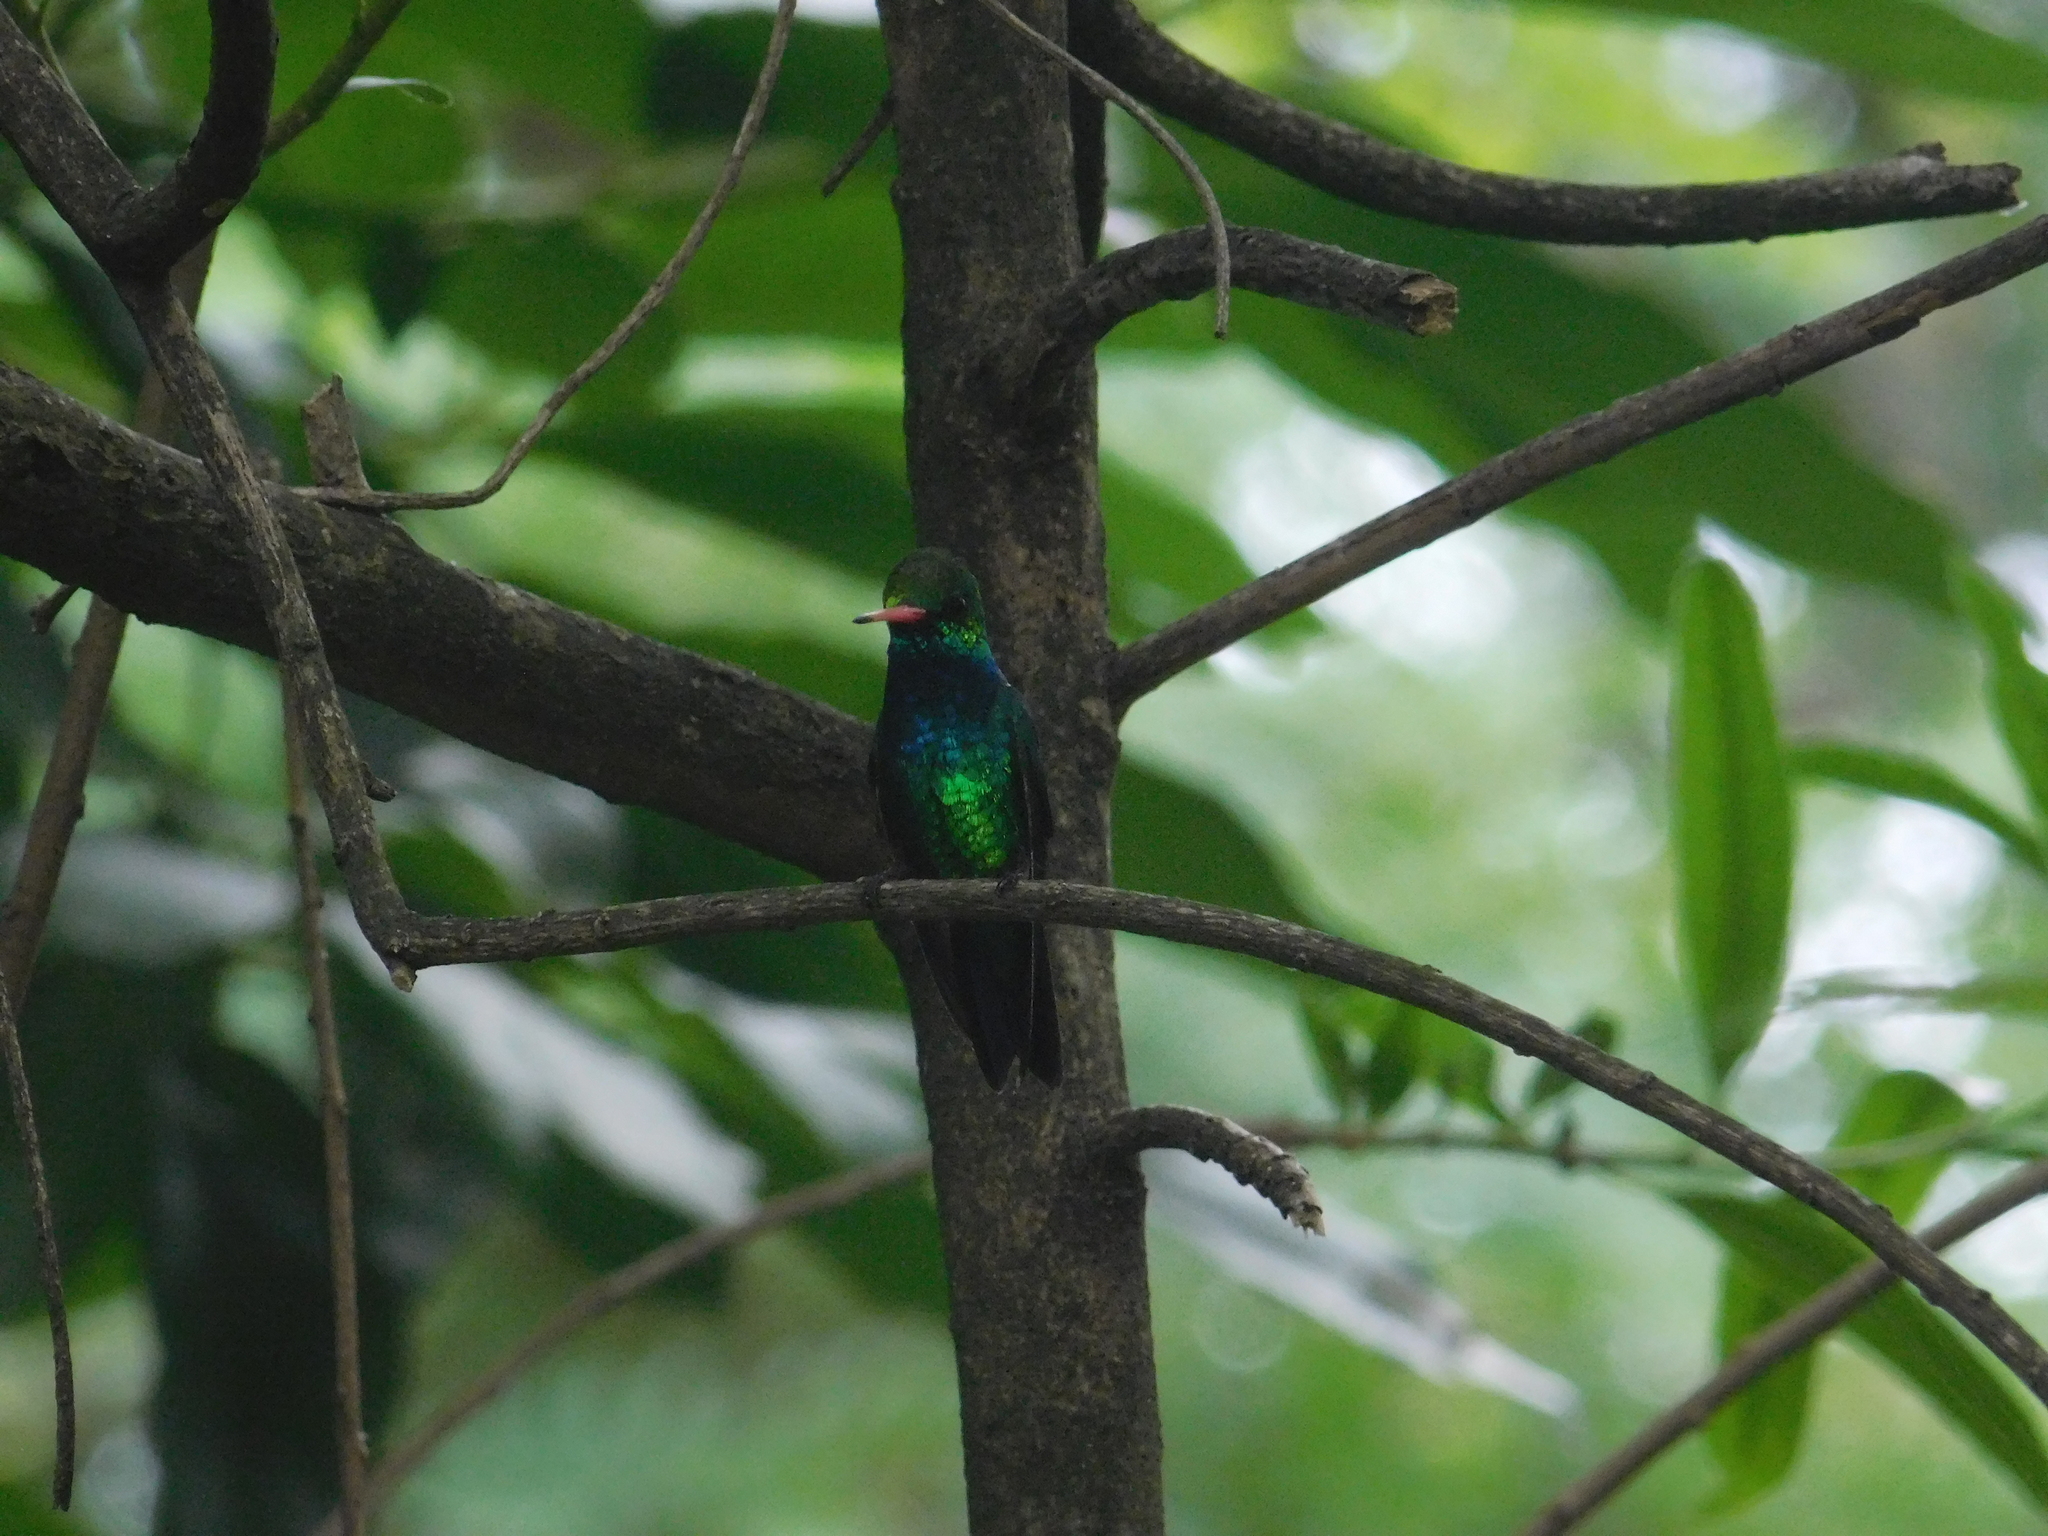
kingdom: Animalia
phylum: Chordata
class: Aves
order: Apodiformes
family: Trochilidae
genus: Chlorostilbon
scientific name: Chlorostilbon lucidus
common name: Glittering-bellied emerald
